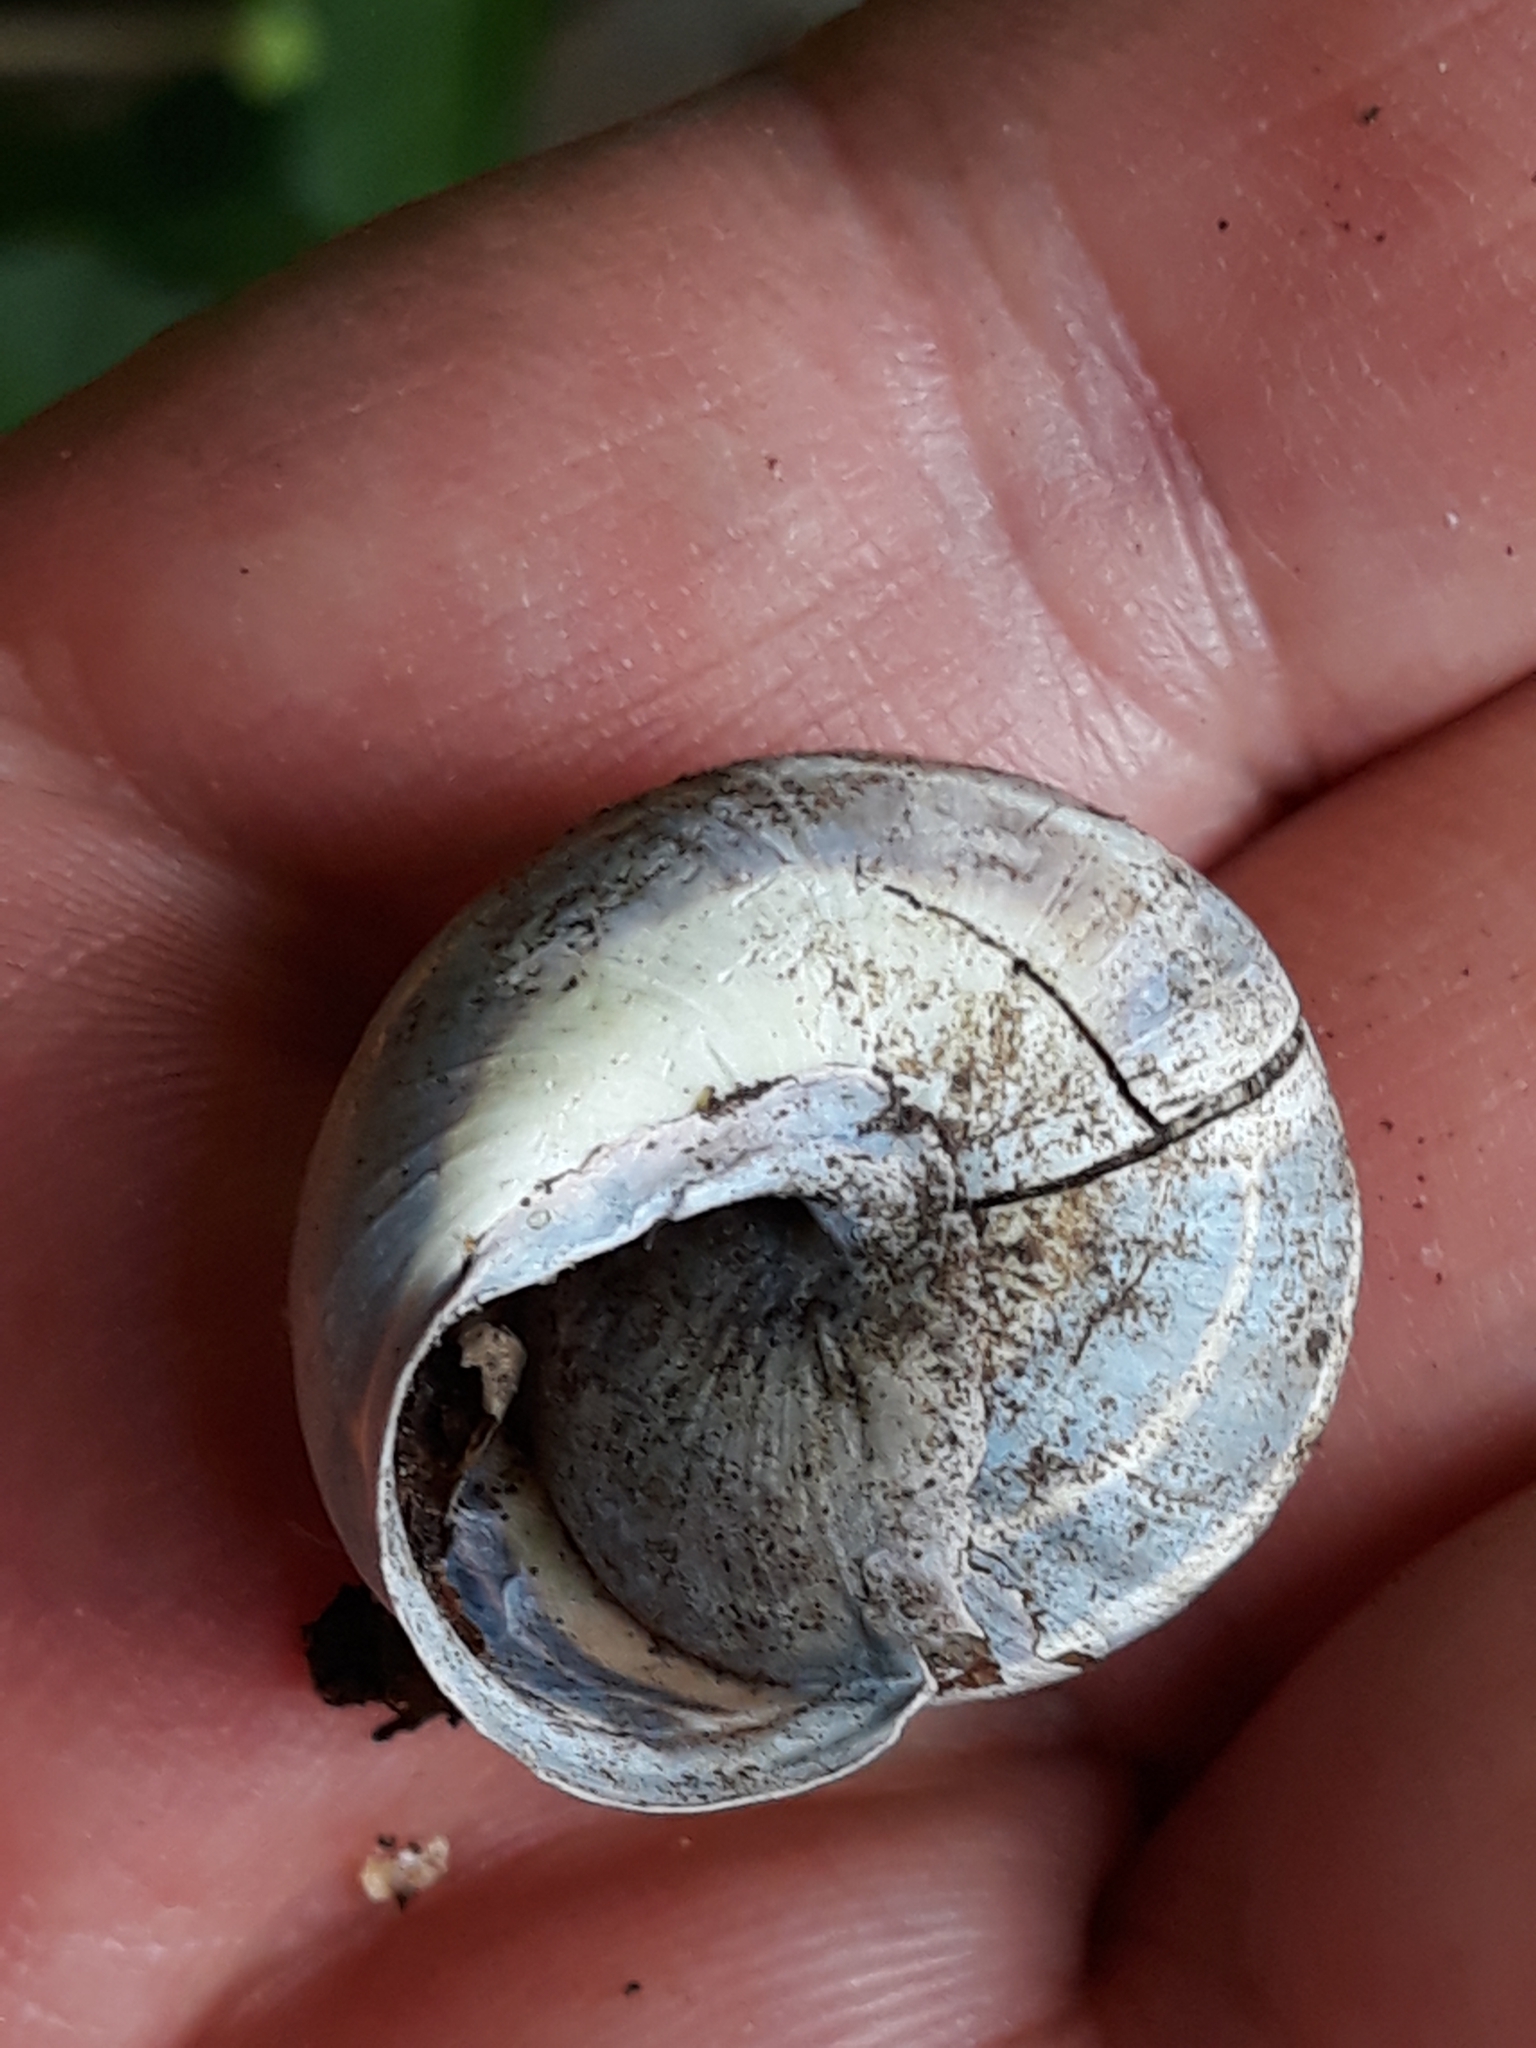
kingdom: Animalia
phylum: Mollusca
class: Gastropoda
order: Stylommatophora
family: Helicidae
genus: Cepaea
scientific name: Cepaea nemoralis
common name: Grovesnail
